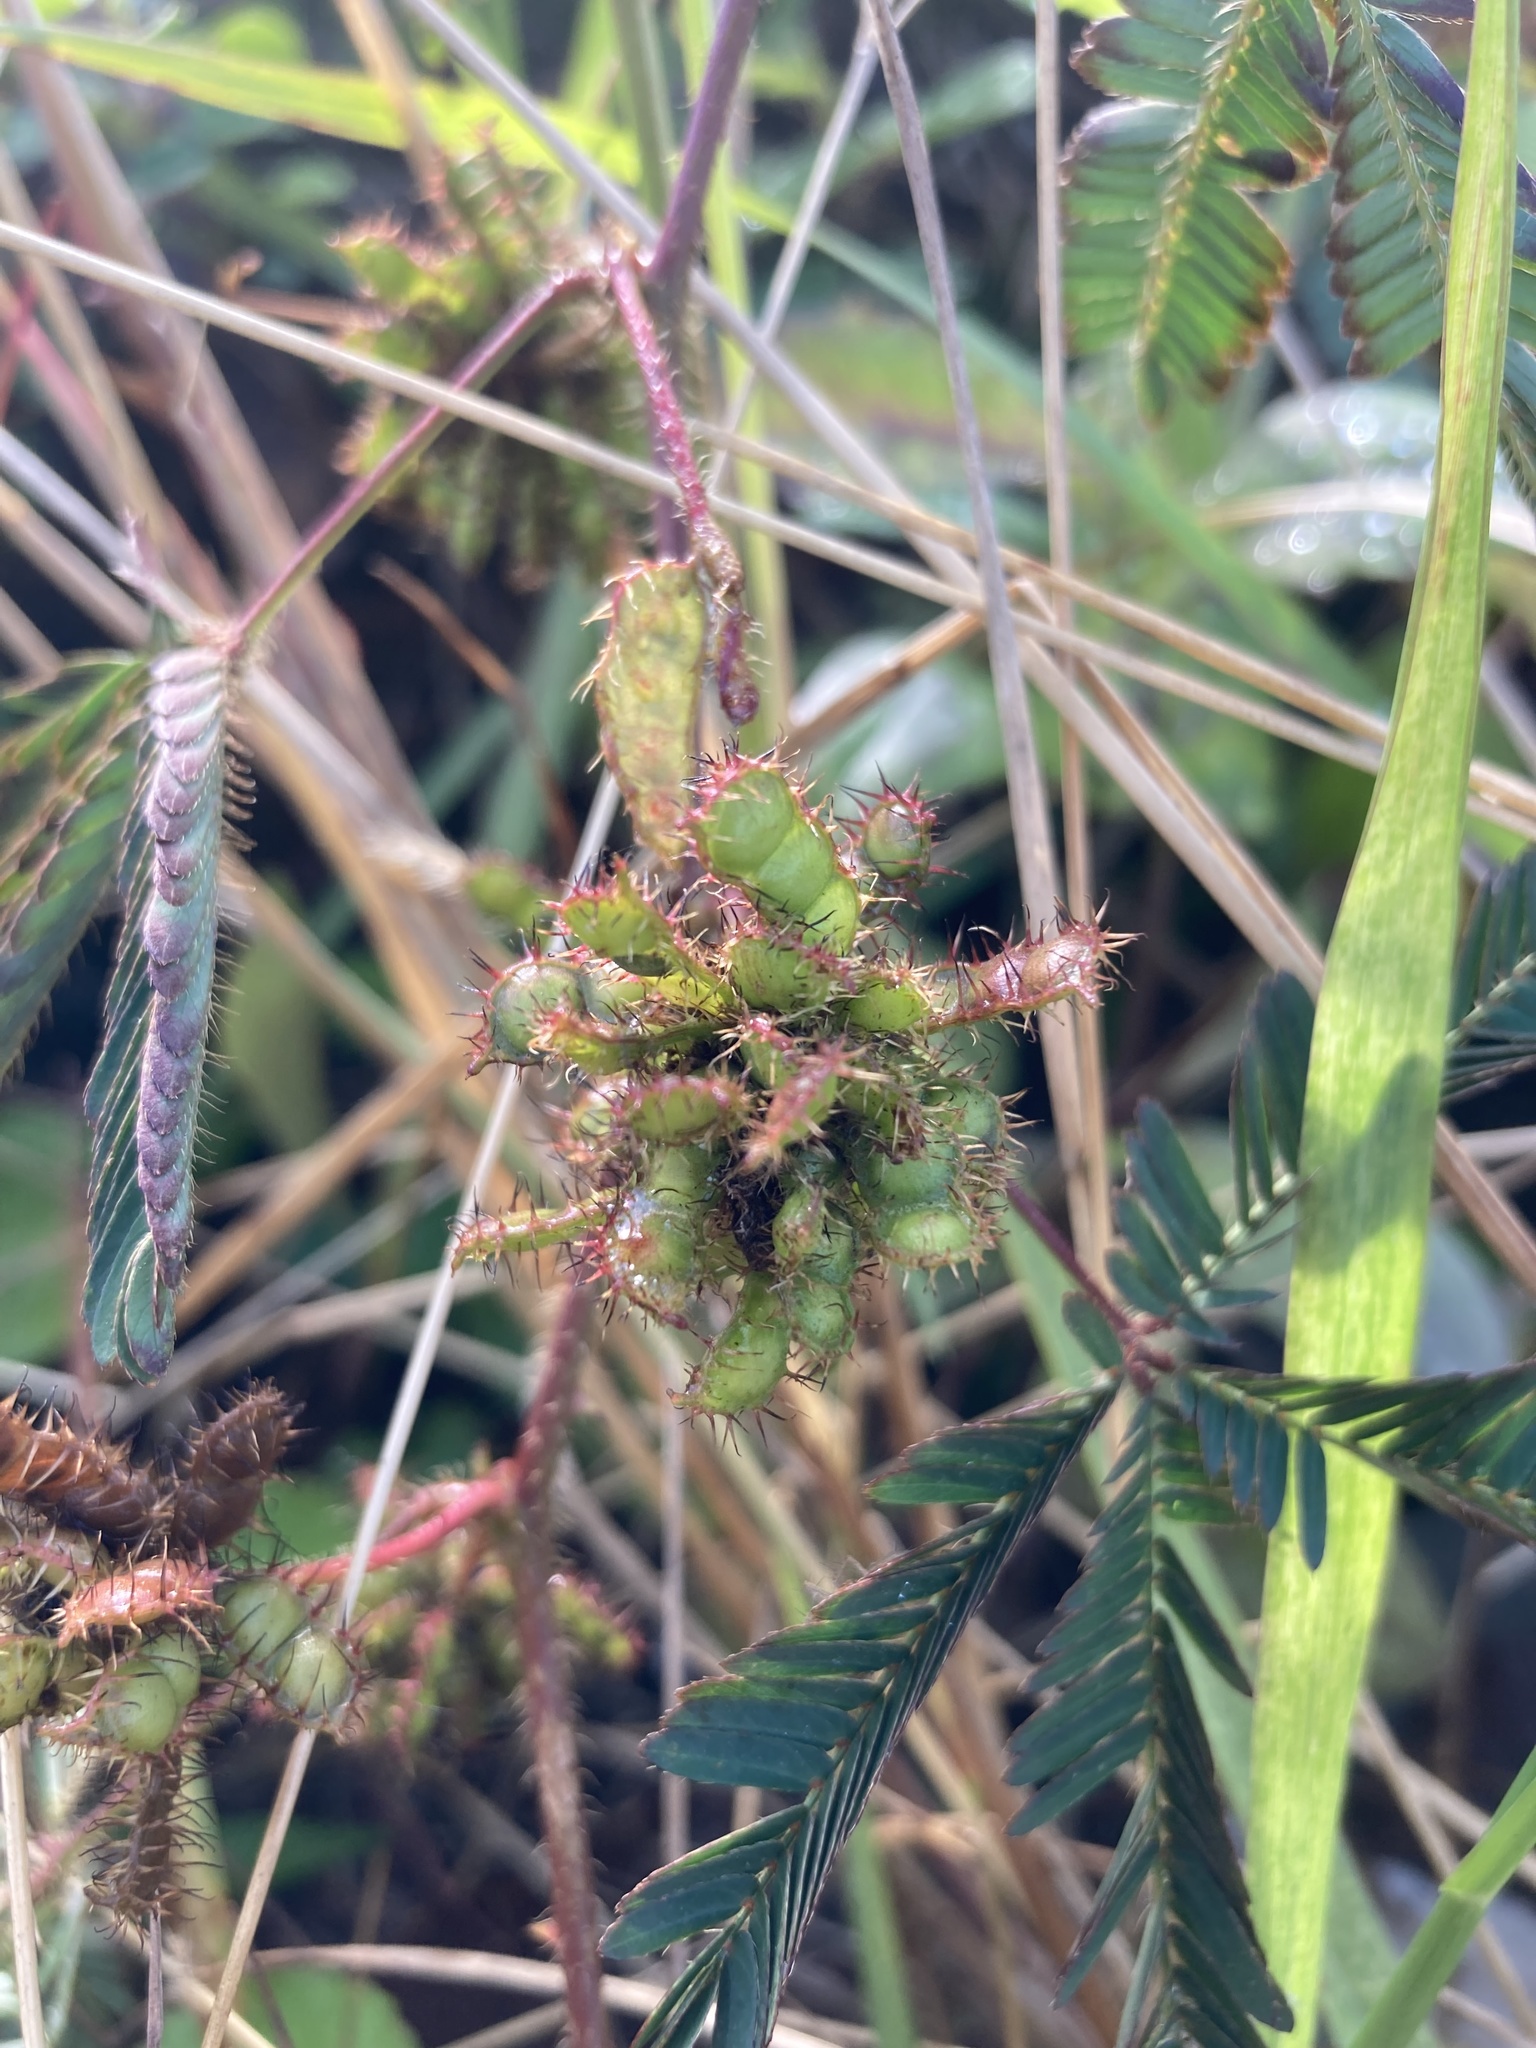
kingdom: Plantae
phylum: Tracheophyta
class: Magnoliopsida
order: Fabales
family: Fabaceae
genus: Mimosa
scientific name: Mimosa pudica
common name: Sensitive plant
